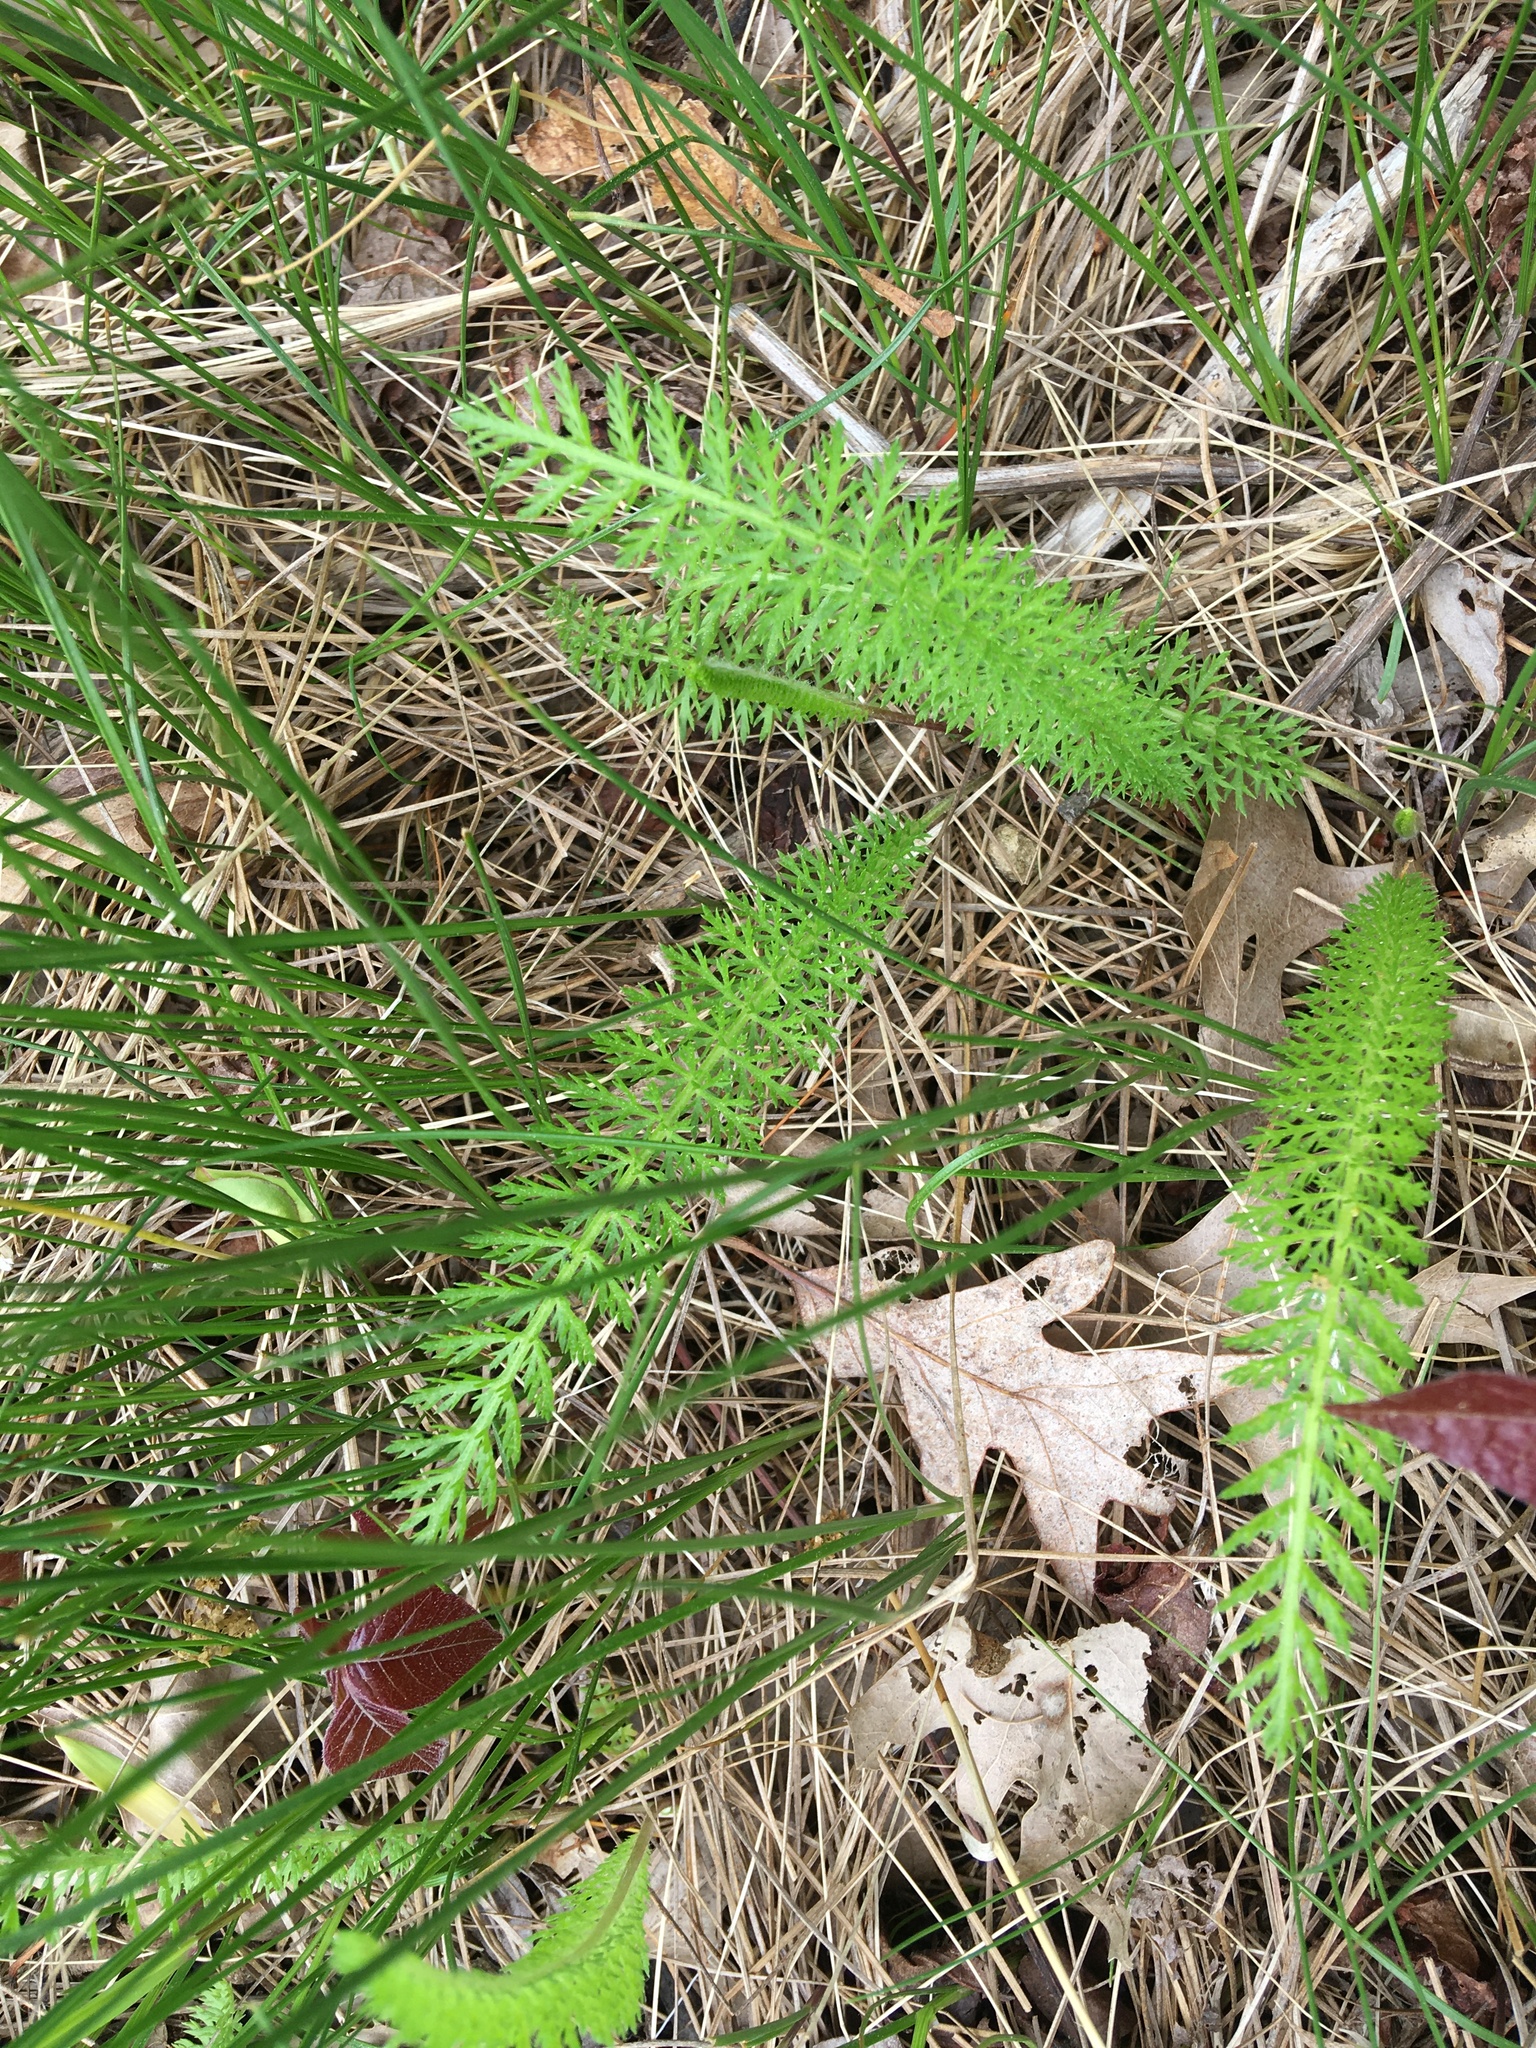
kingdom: Plantae
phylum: Tracheophyta
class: Magnoliopsida
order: Asterales
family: Asteraceae
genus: Achillea
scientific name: Achillea millefolium
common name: Yarrow
